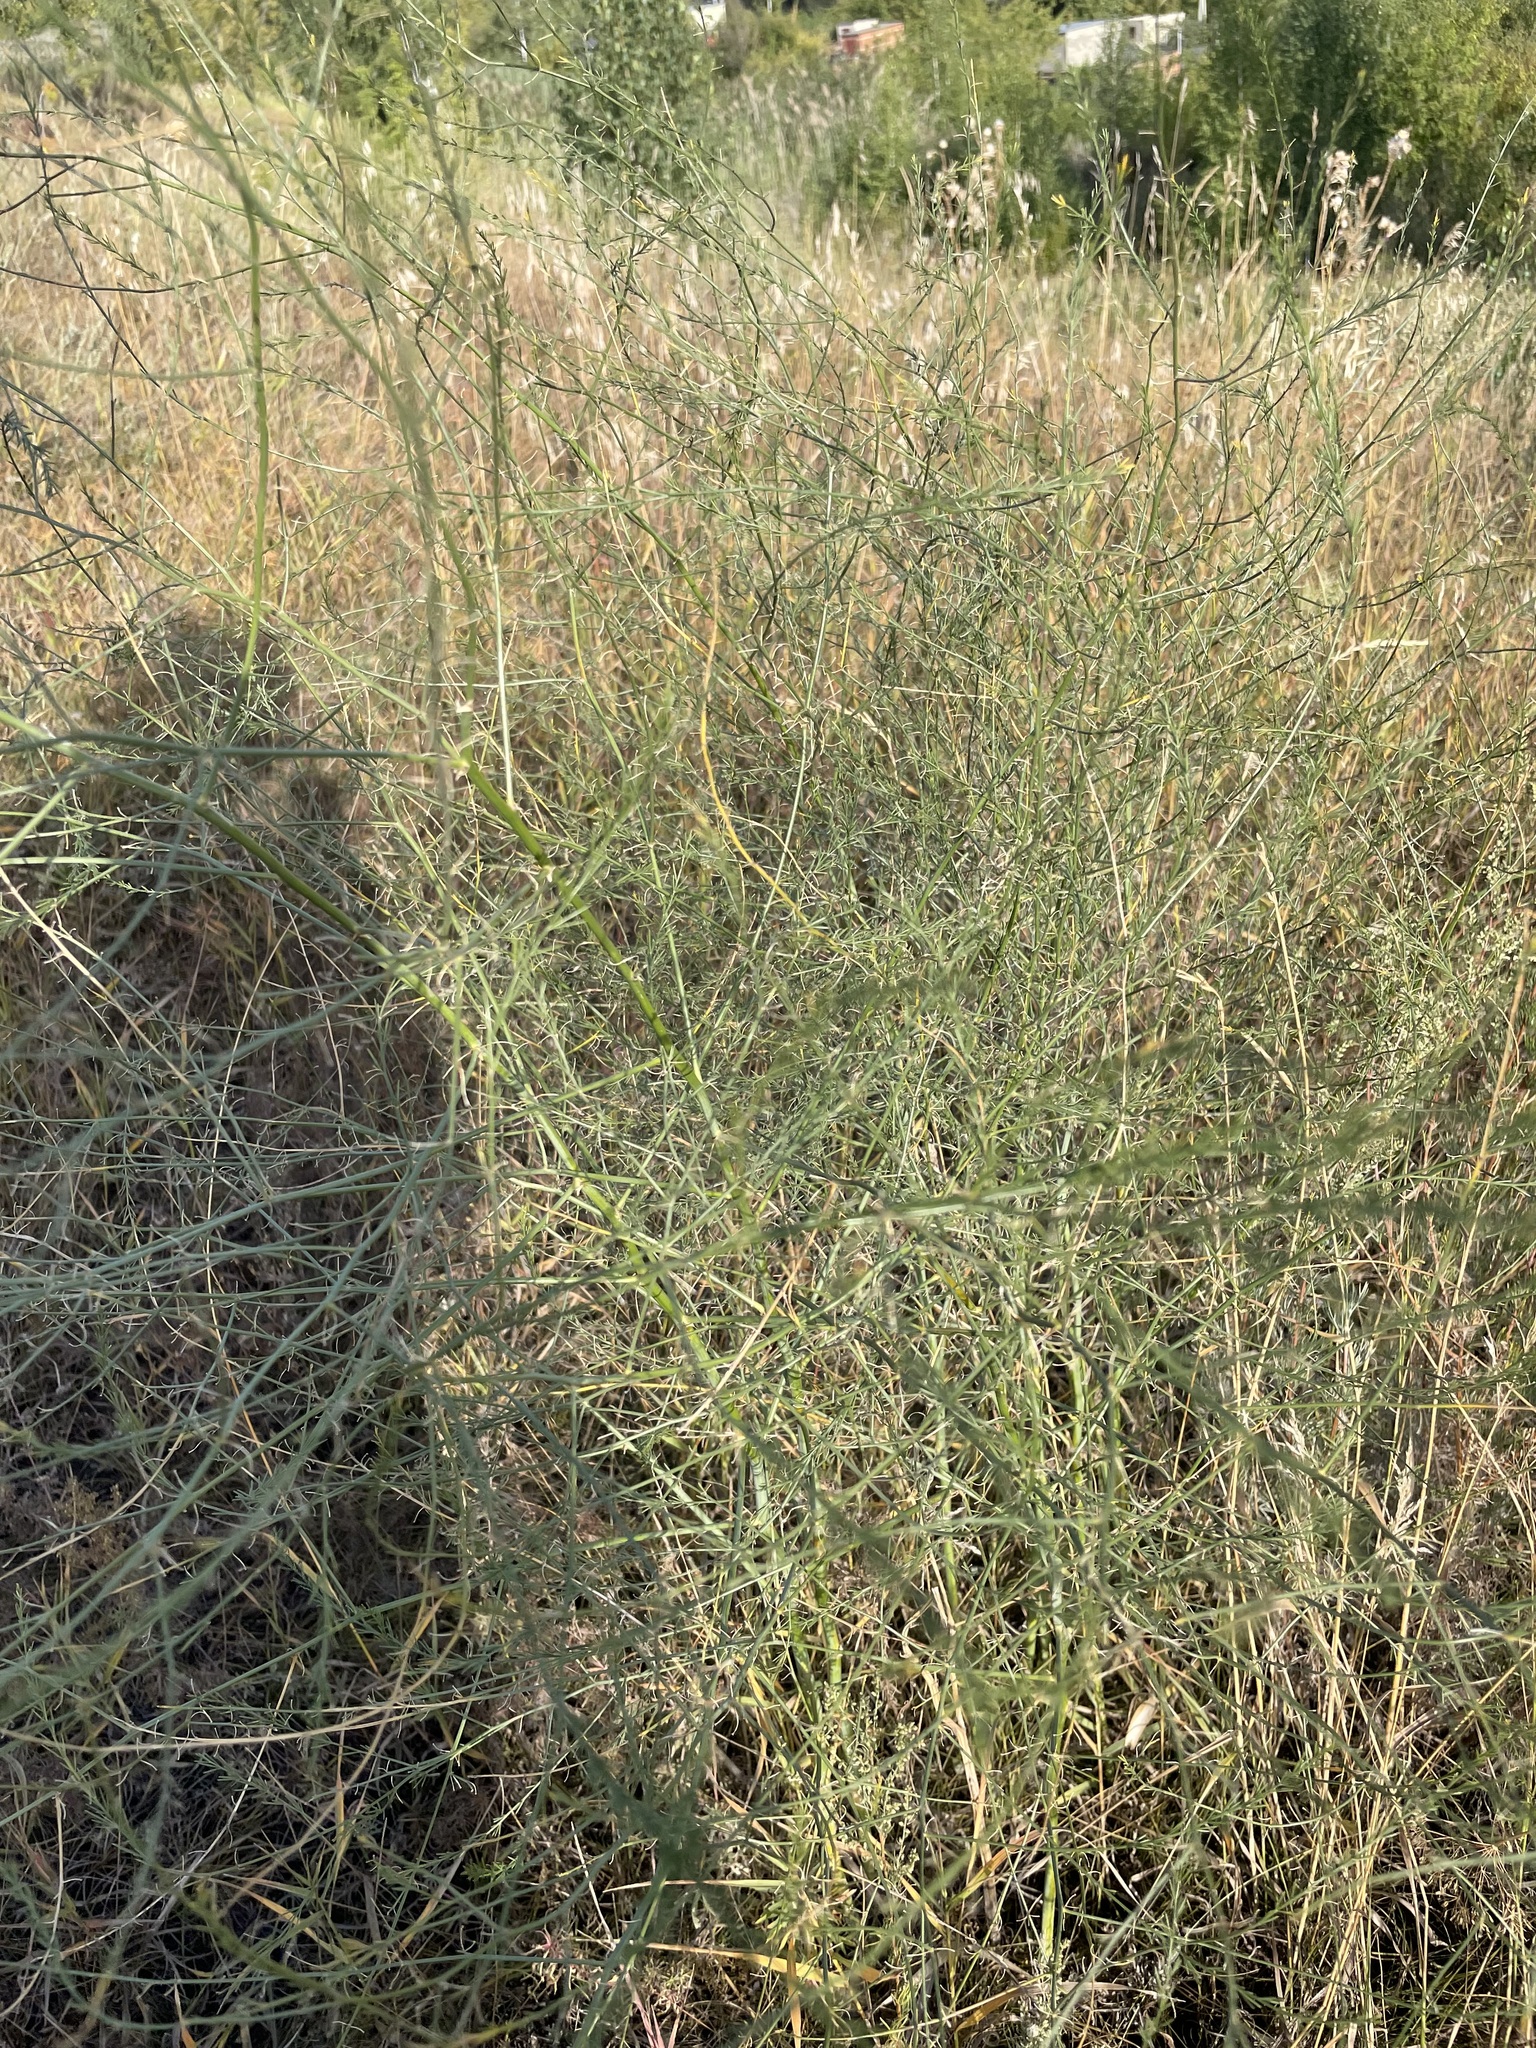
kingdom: Plantae
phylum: Tracheophyta
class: Liliopsida
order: Asparagales
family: Asparagaceae
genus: Asparagus
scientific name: Asparagus officinalis
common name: Garden asparagus
